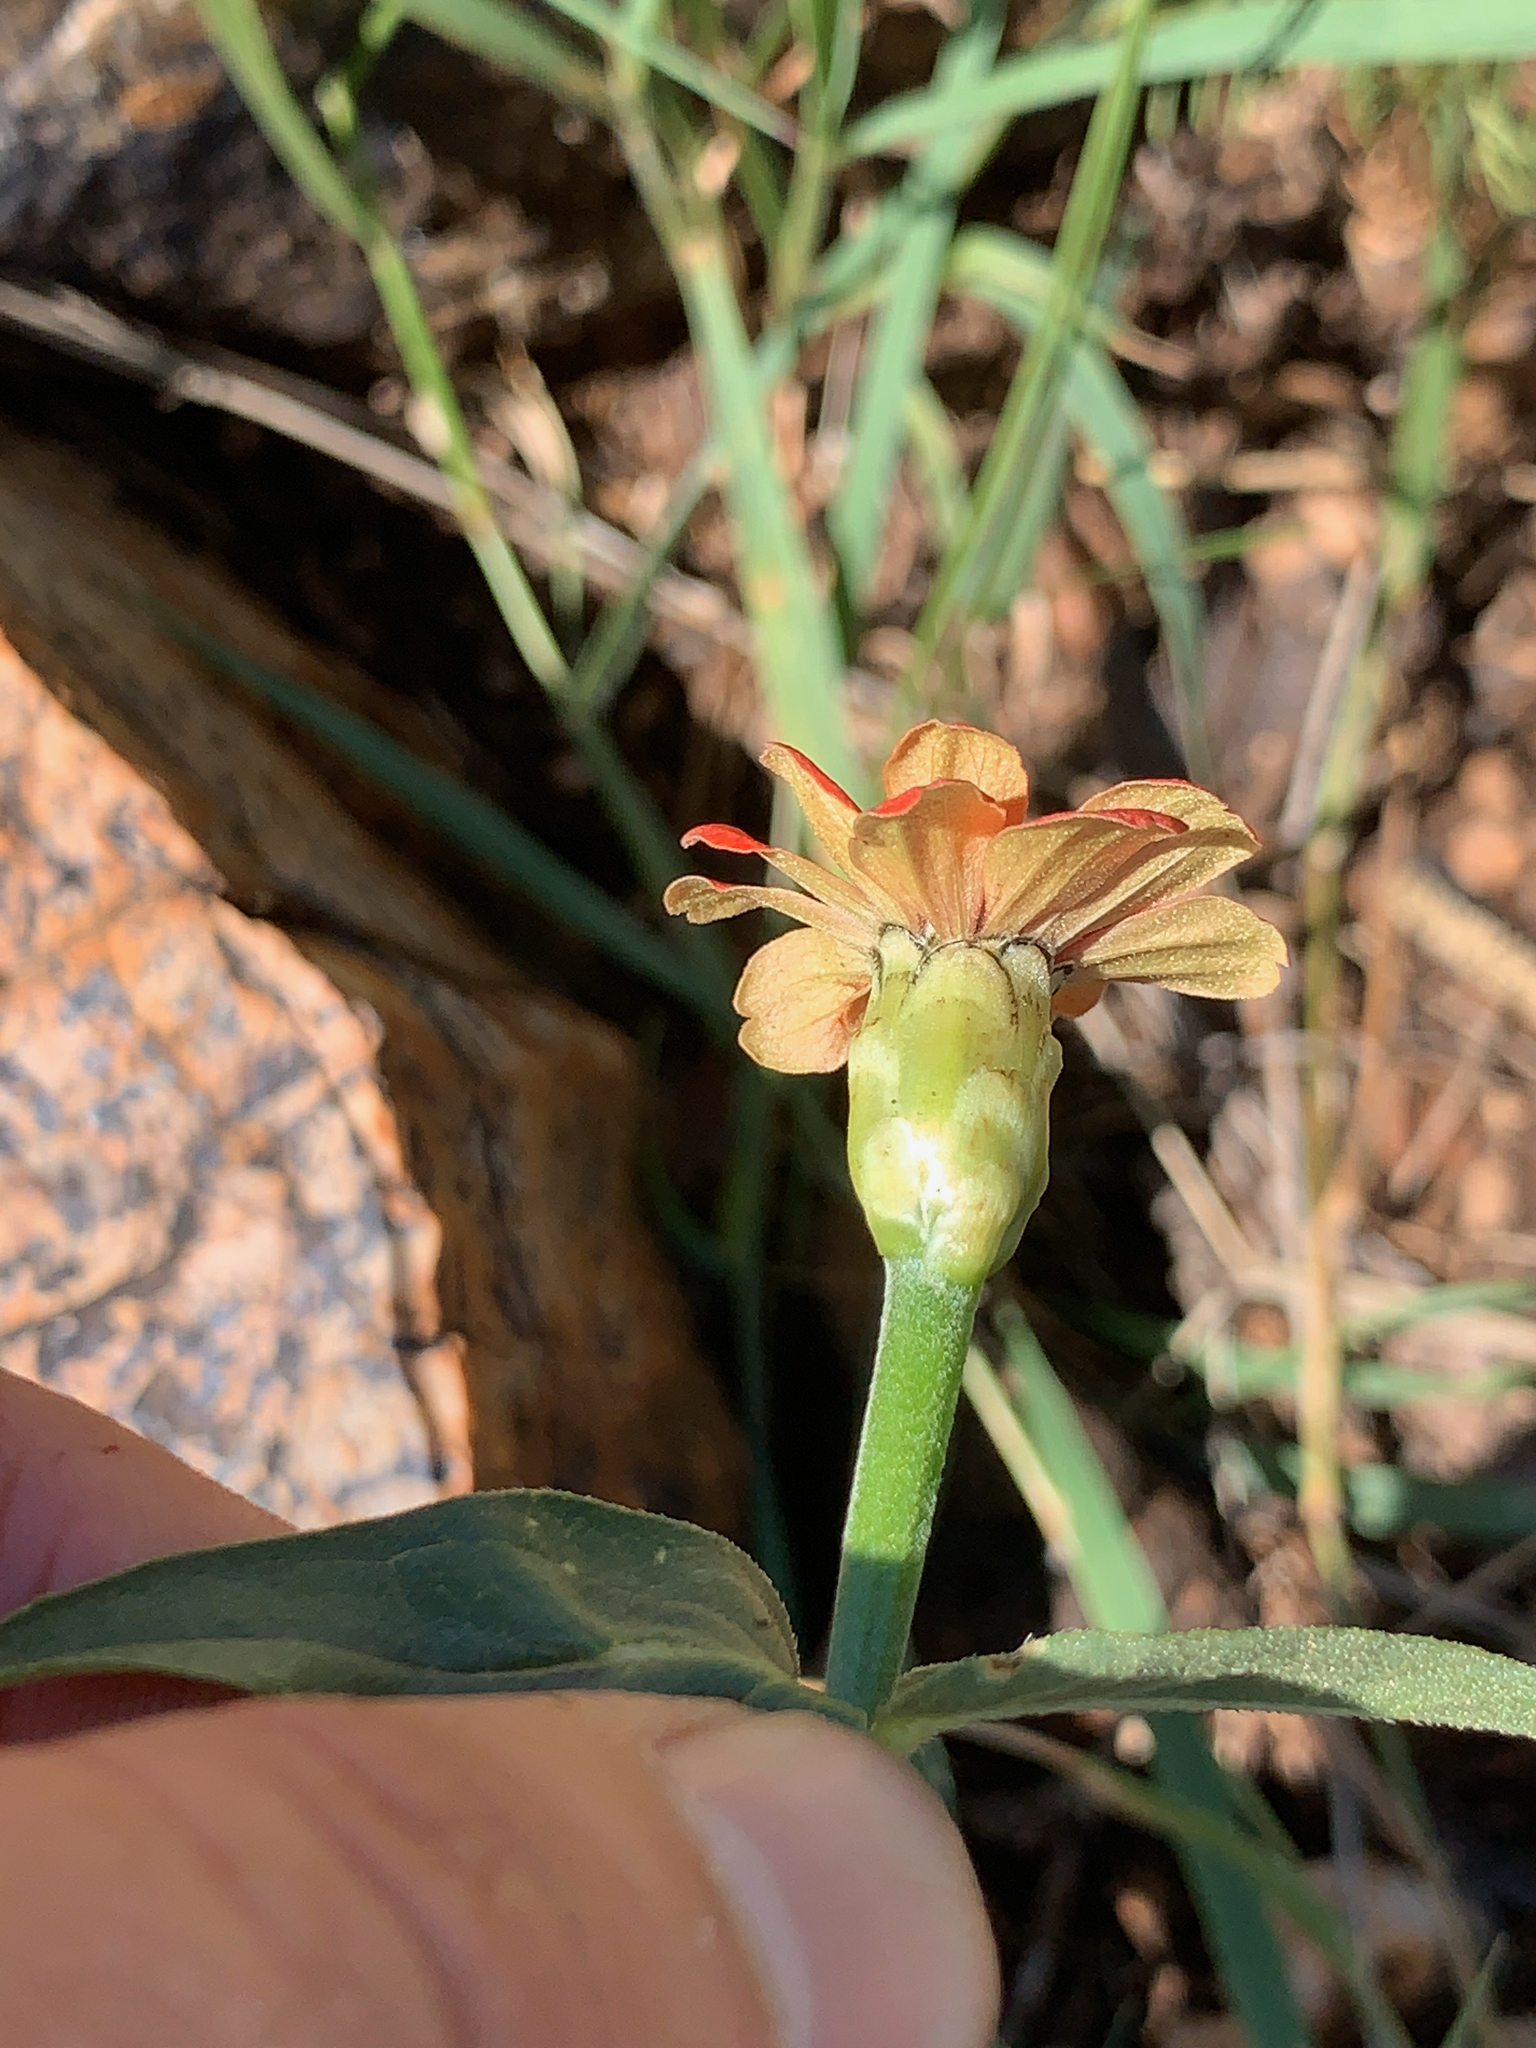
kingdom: Plantae
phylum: Tracheophyta
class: Magnoliopsida
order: Asterales
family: Asteraceae
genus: Zinnia
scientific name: Zinnia peruviana
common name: Peruvian zinnia
